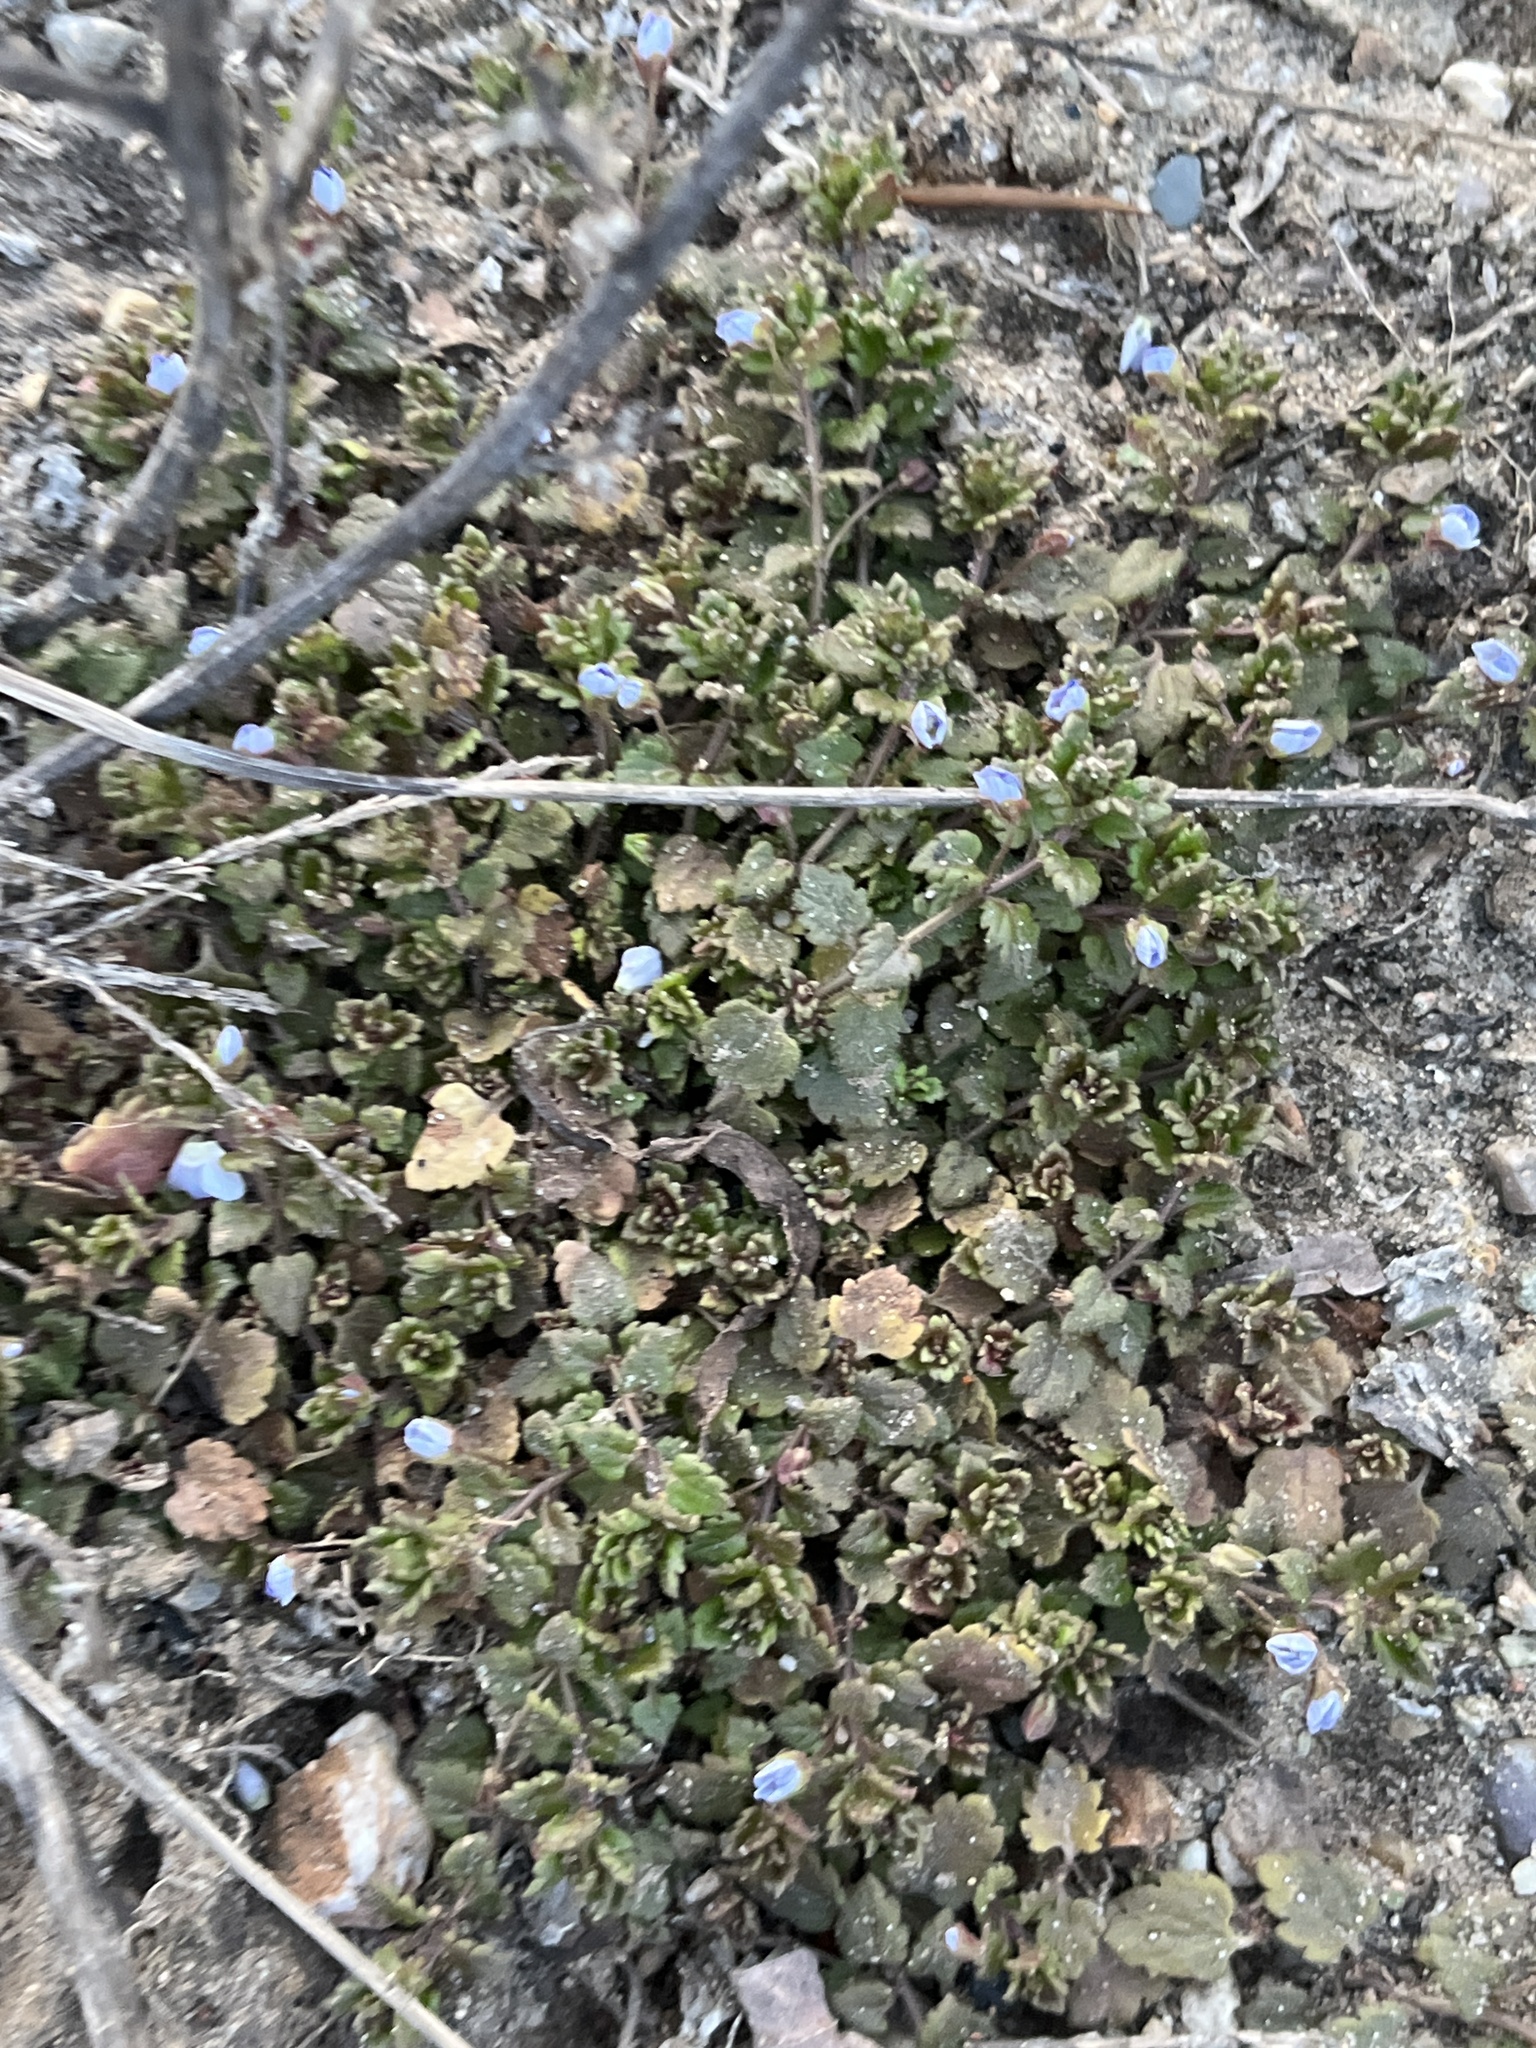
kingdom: Plantae
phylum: Tracheophyta
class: Magnoliopsida
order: Lamiales
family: Plantaginaceae
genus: Veronica
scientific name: Veronica polita
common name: Grey field-speedwell
